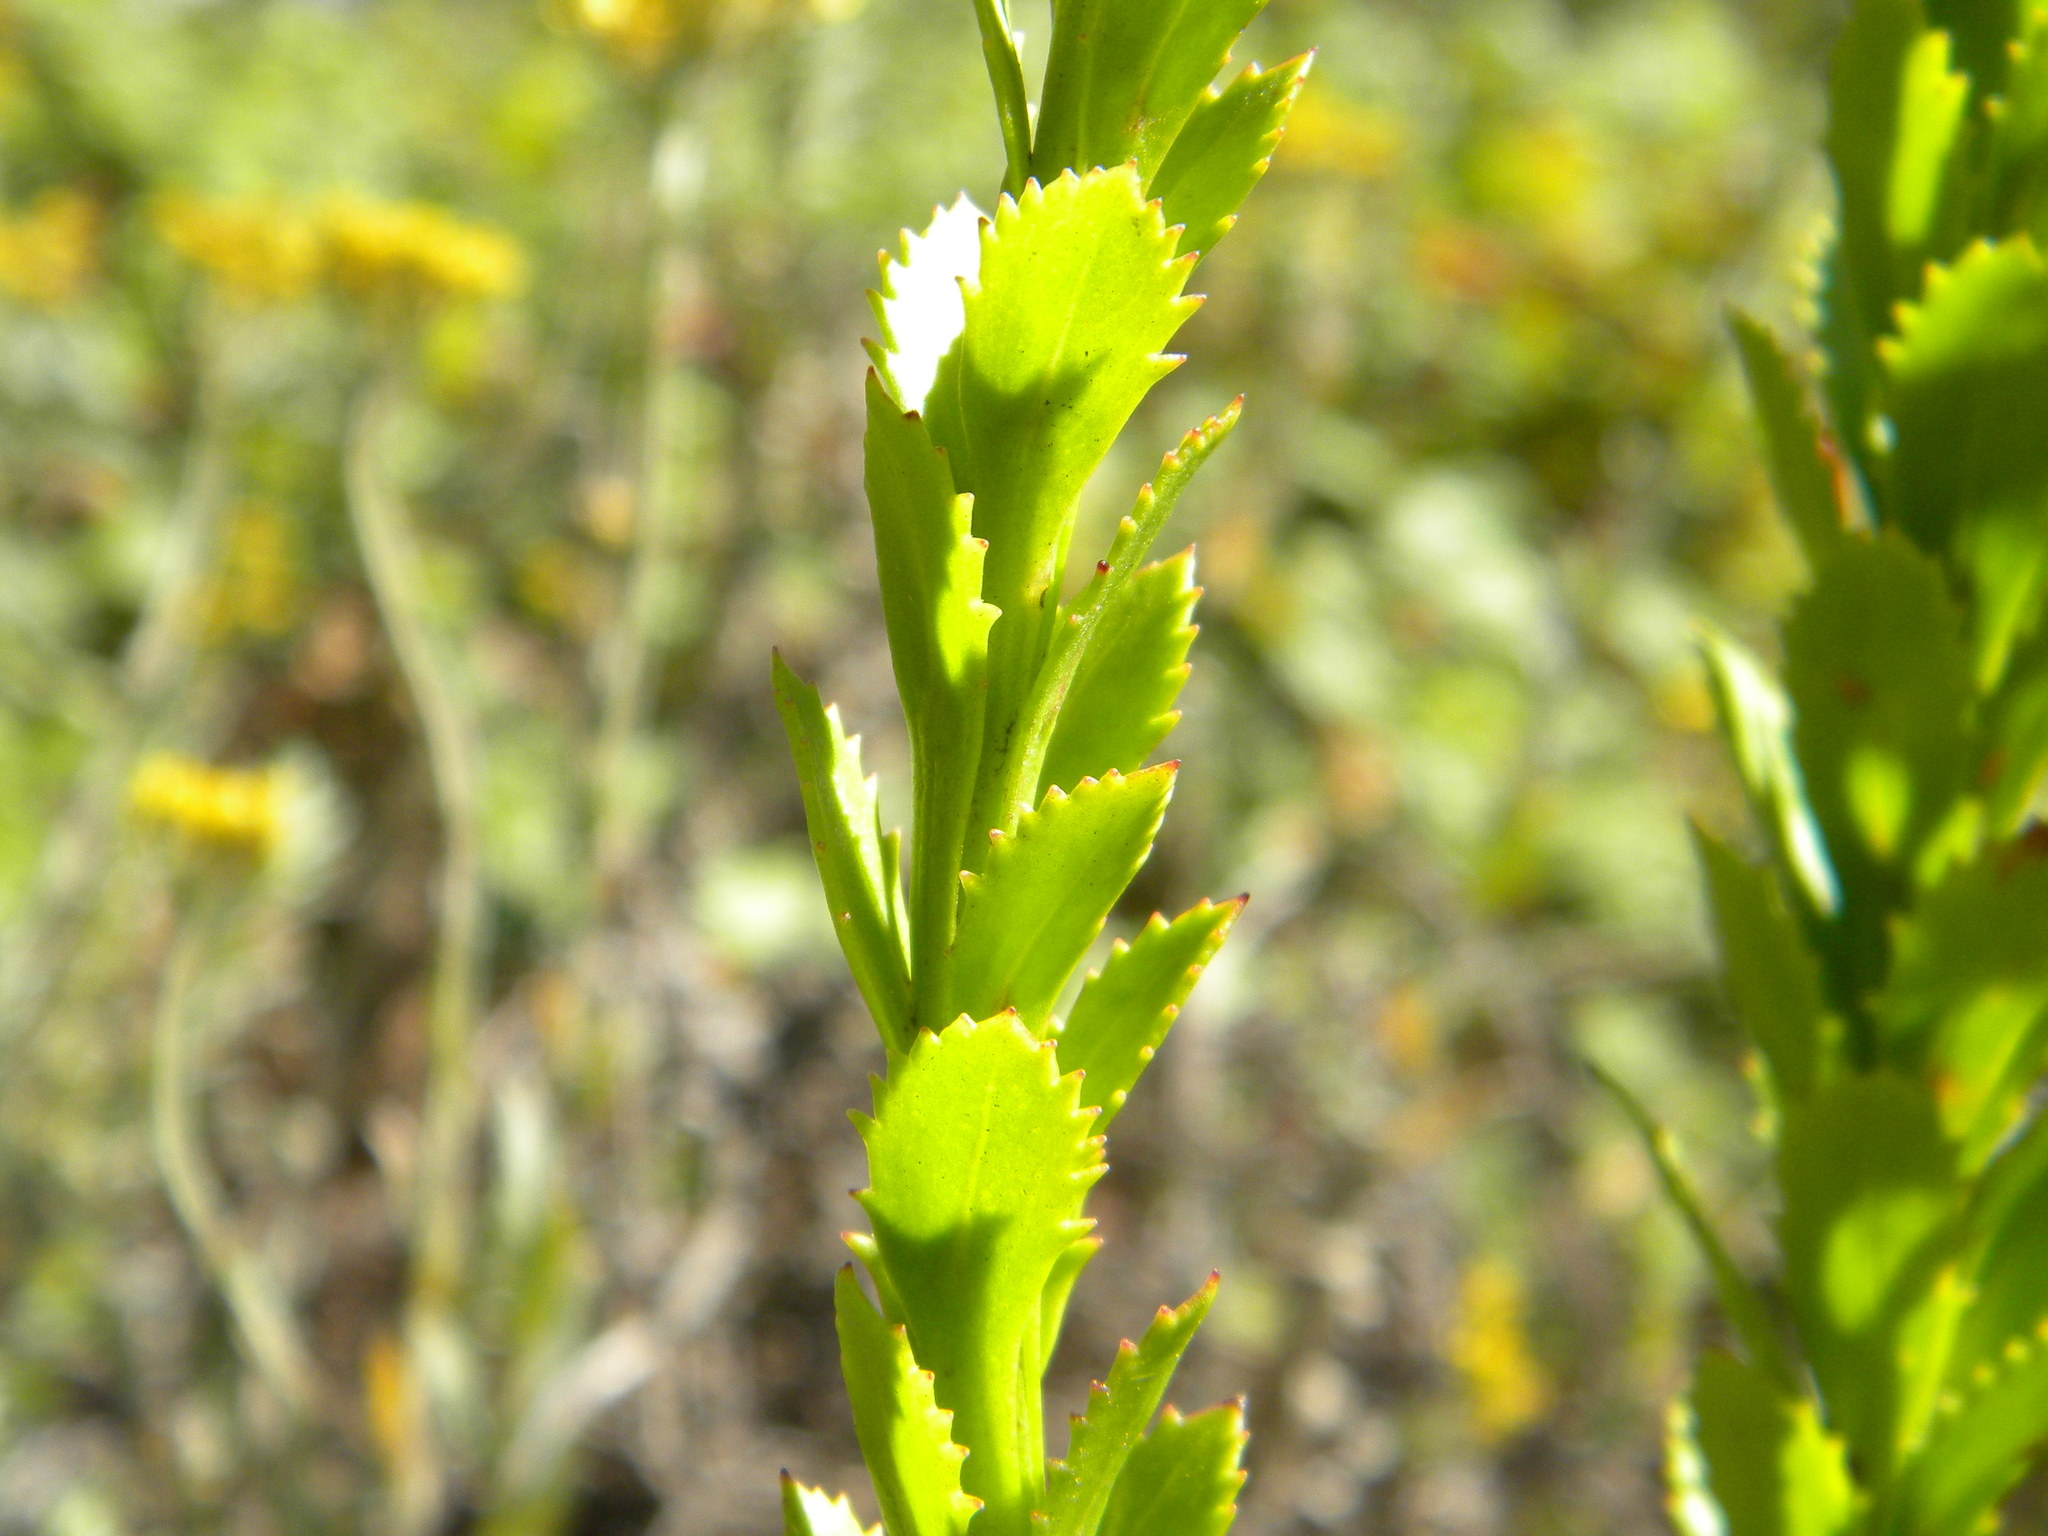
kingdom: Plantae
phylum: Tracheophyta
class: Magnoliopsida
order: Lamiales
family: Scrophulariaceae
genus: Pseudoselago
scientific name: Pseudoselago serrata
